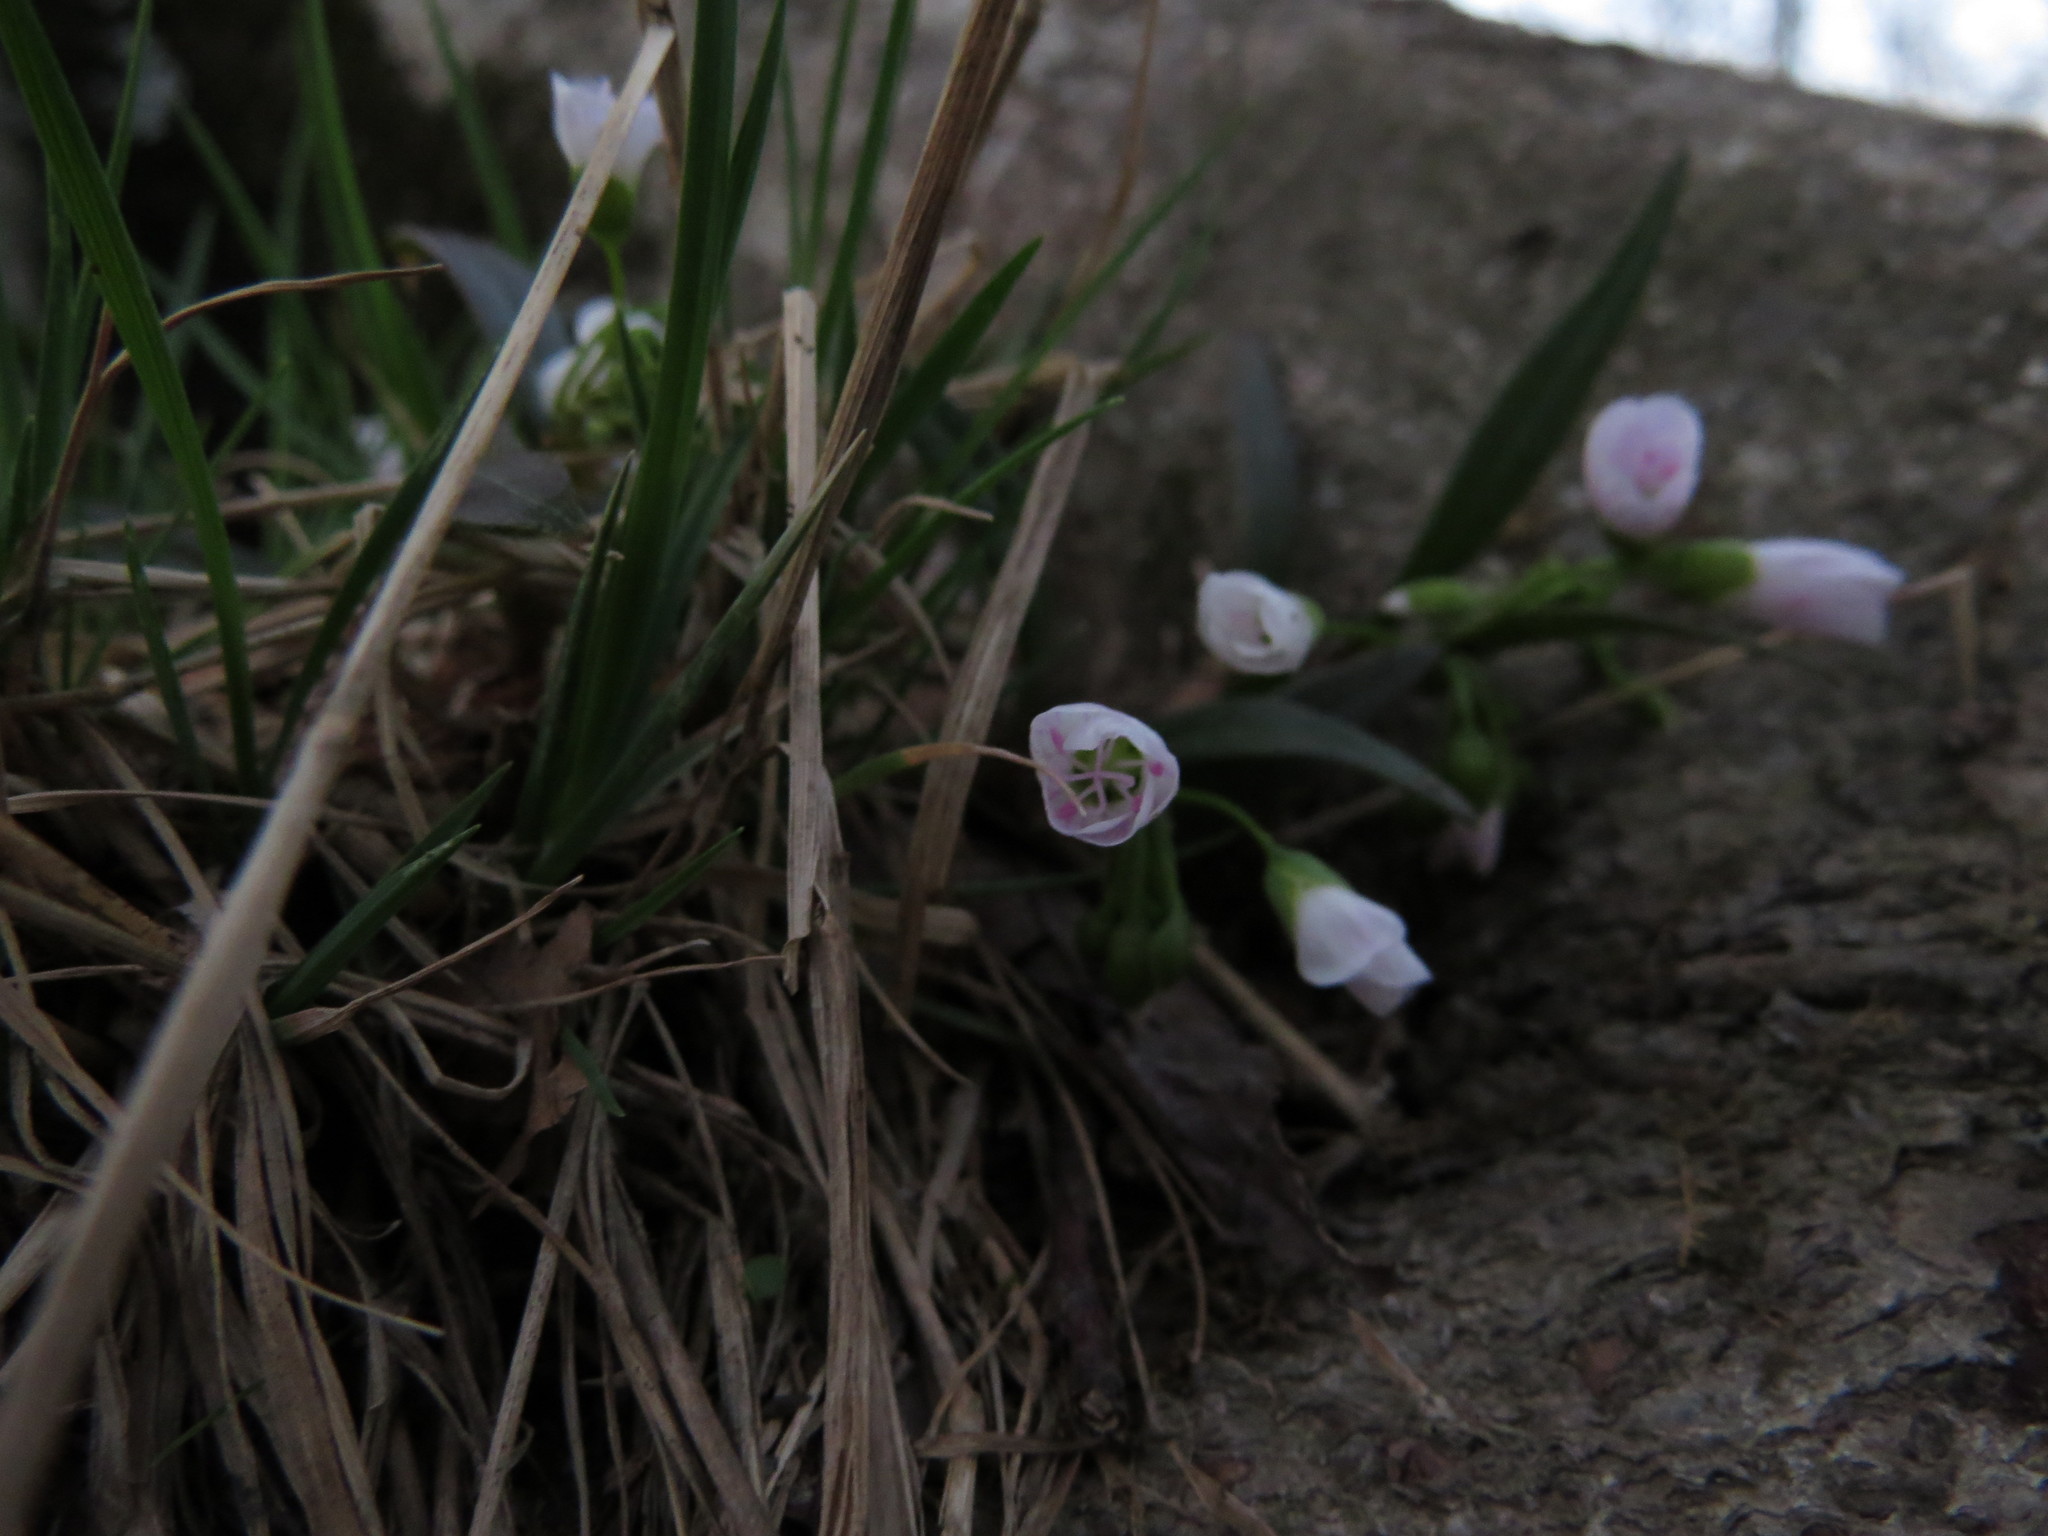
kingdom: Plantae
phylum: Tracheophyta
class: Magnoliopsida
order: Caryophyllales
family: Montiaceae
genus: Claytonia
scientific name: Claytonia virginica
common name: Virginia springbeauty
